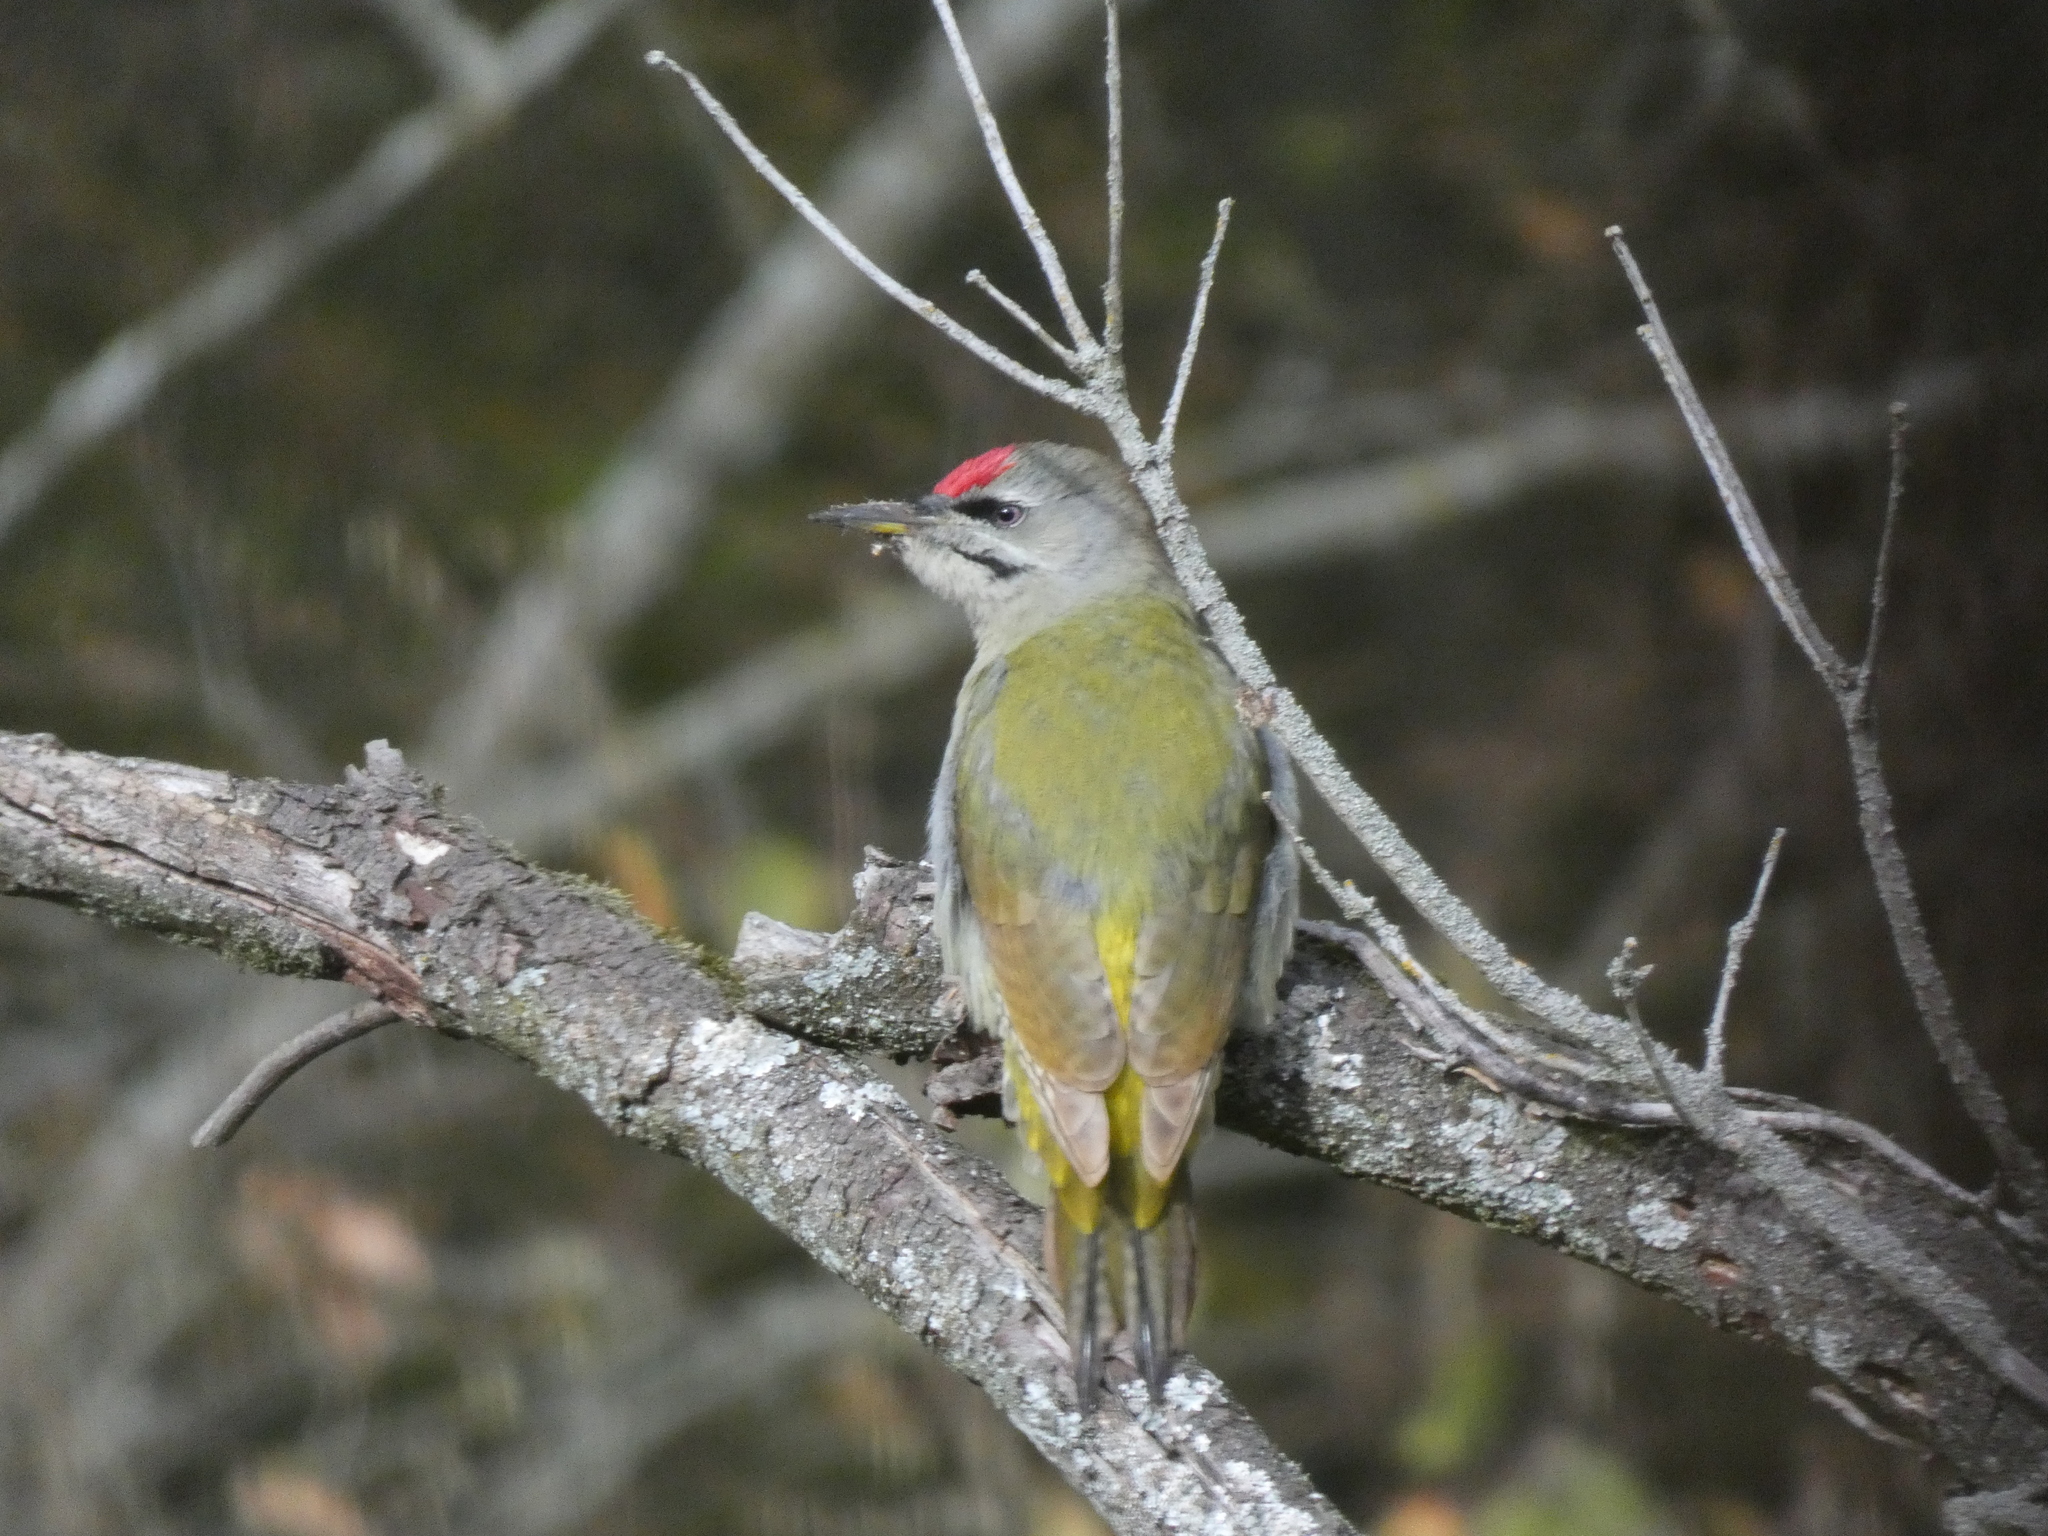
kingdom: Animalia
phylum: Chordata
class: Aves
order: Piciformes
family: Picidae
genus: Picus
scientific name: Picus canus
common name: Grey-headed woodpecker
